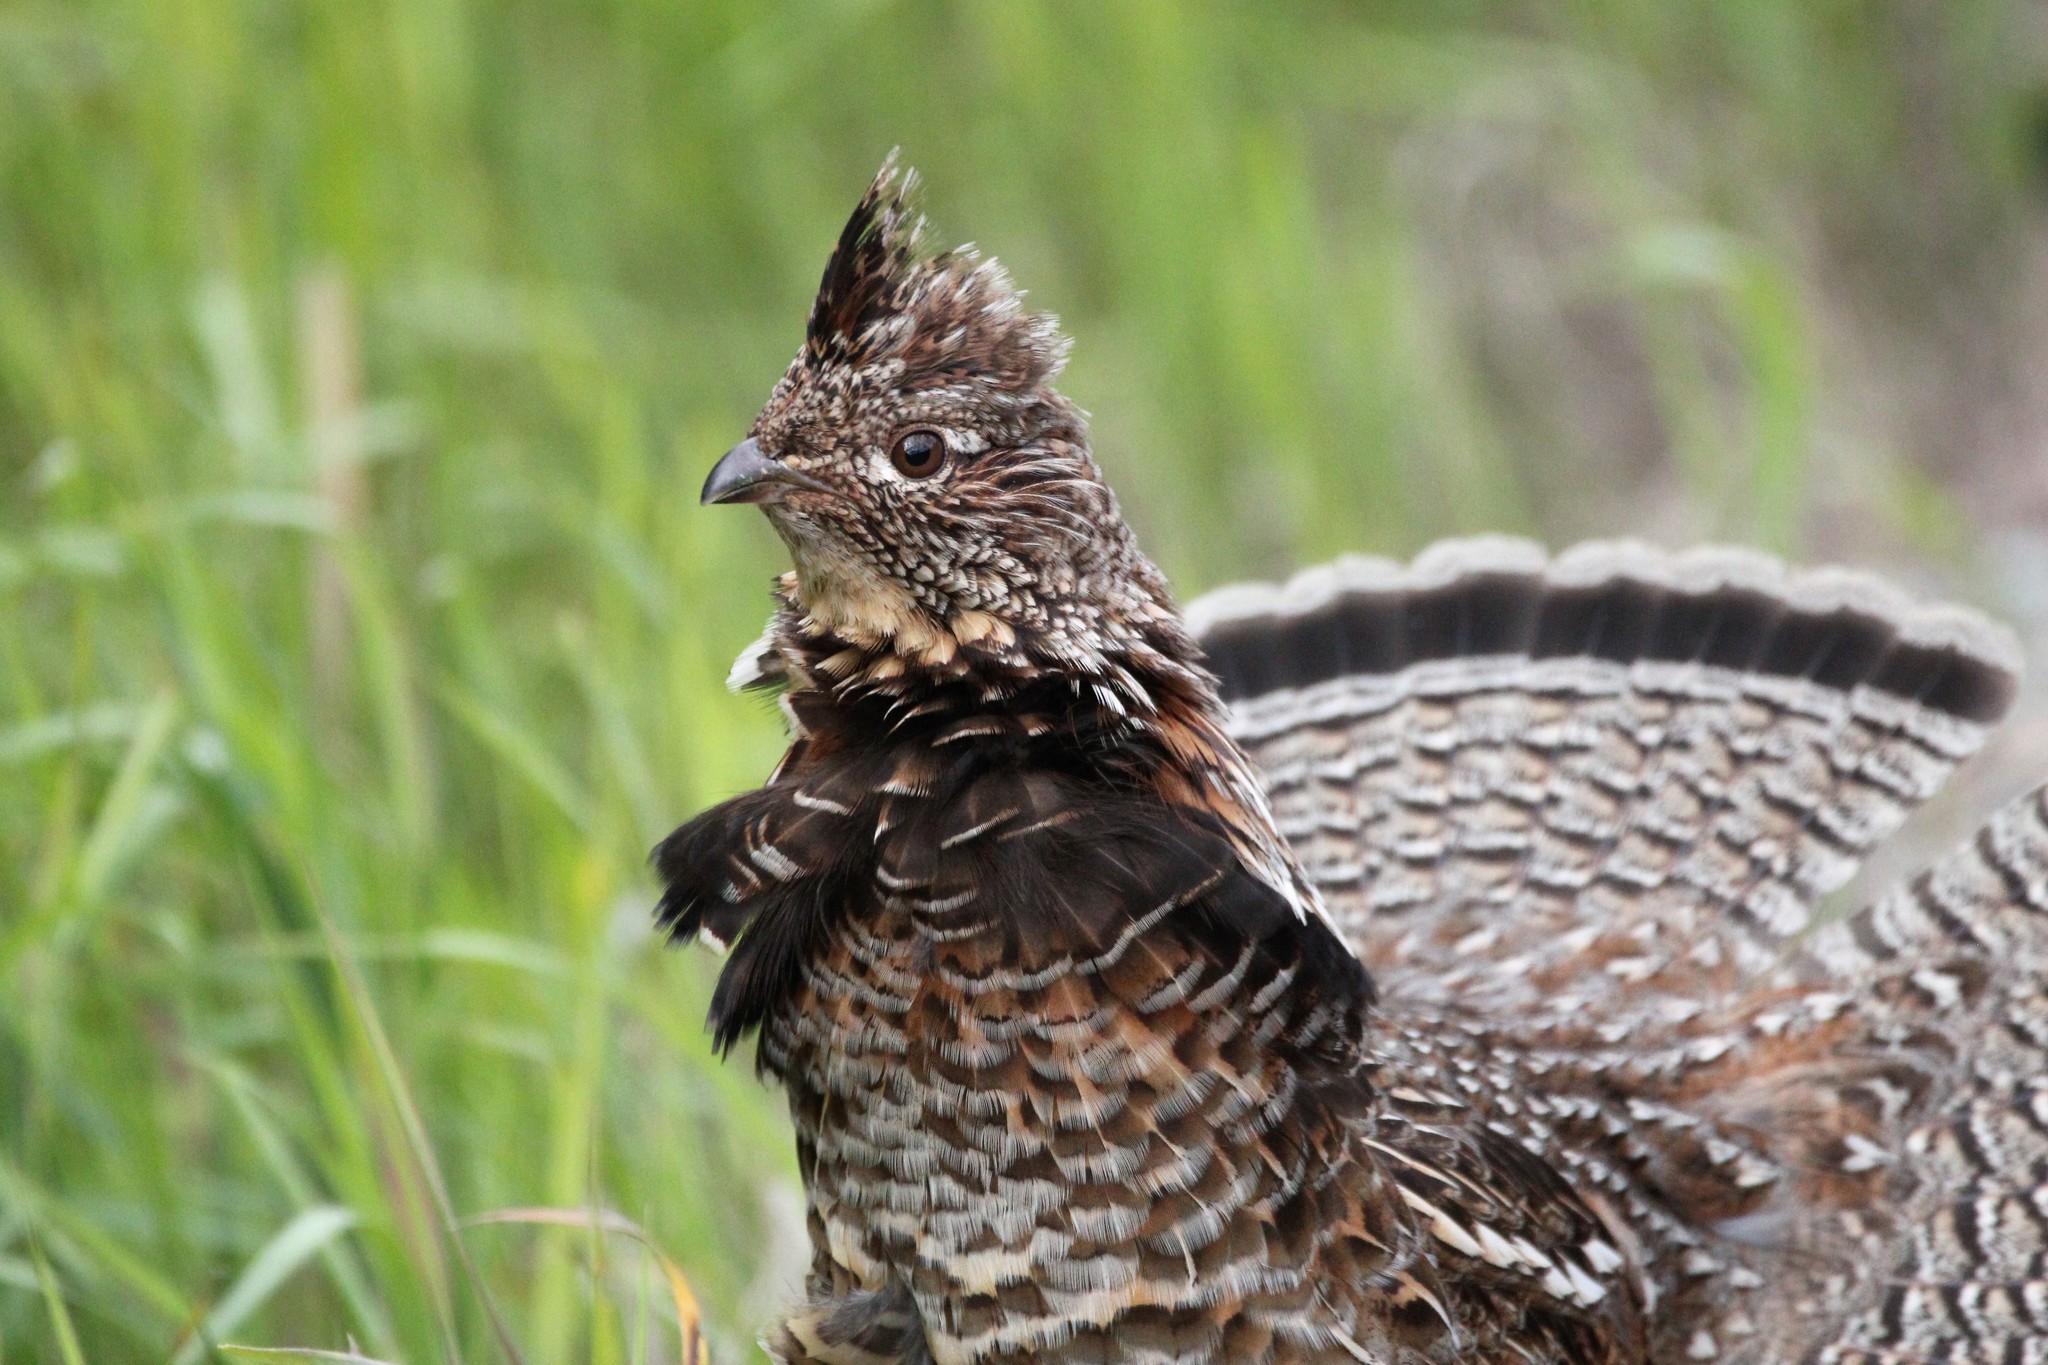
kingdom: Animalia
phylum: Chordata
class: Aves
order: Galliformes
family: Phasianidae
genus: Bonasa
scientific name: Bonasa umbellus
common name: Ruffed grouse
